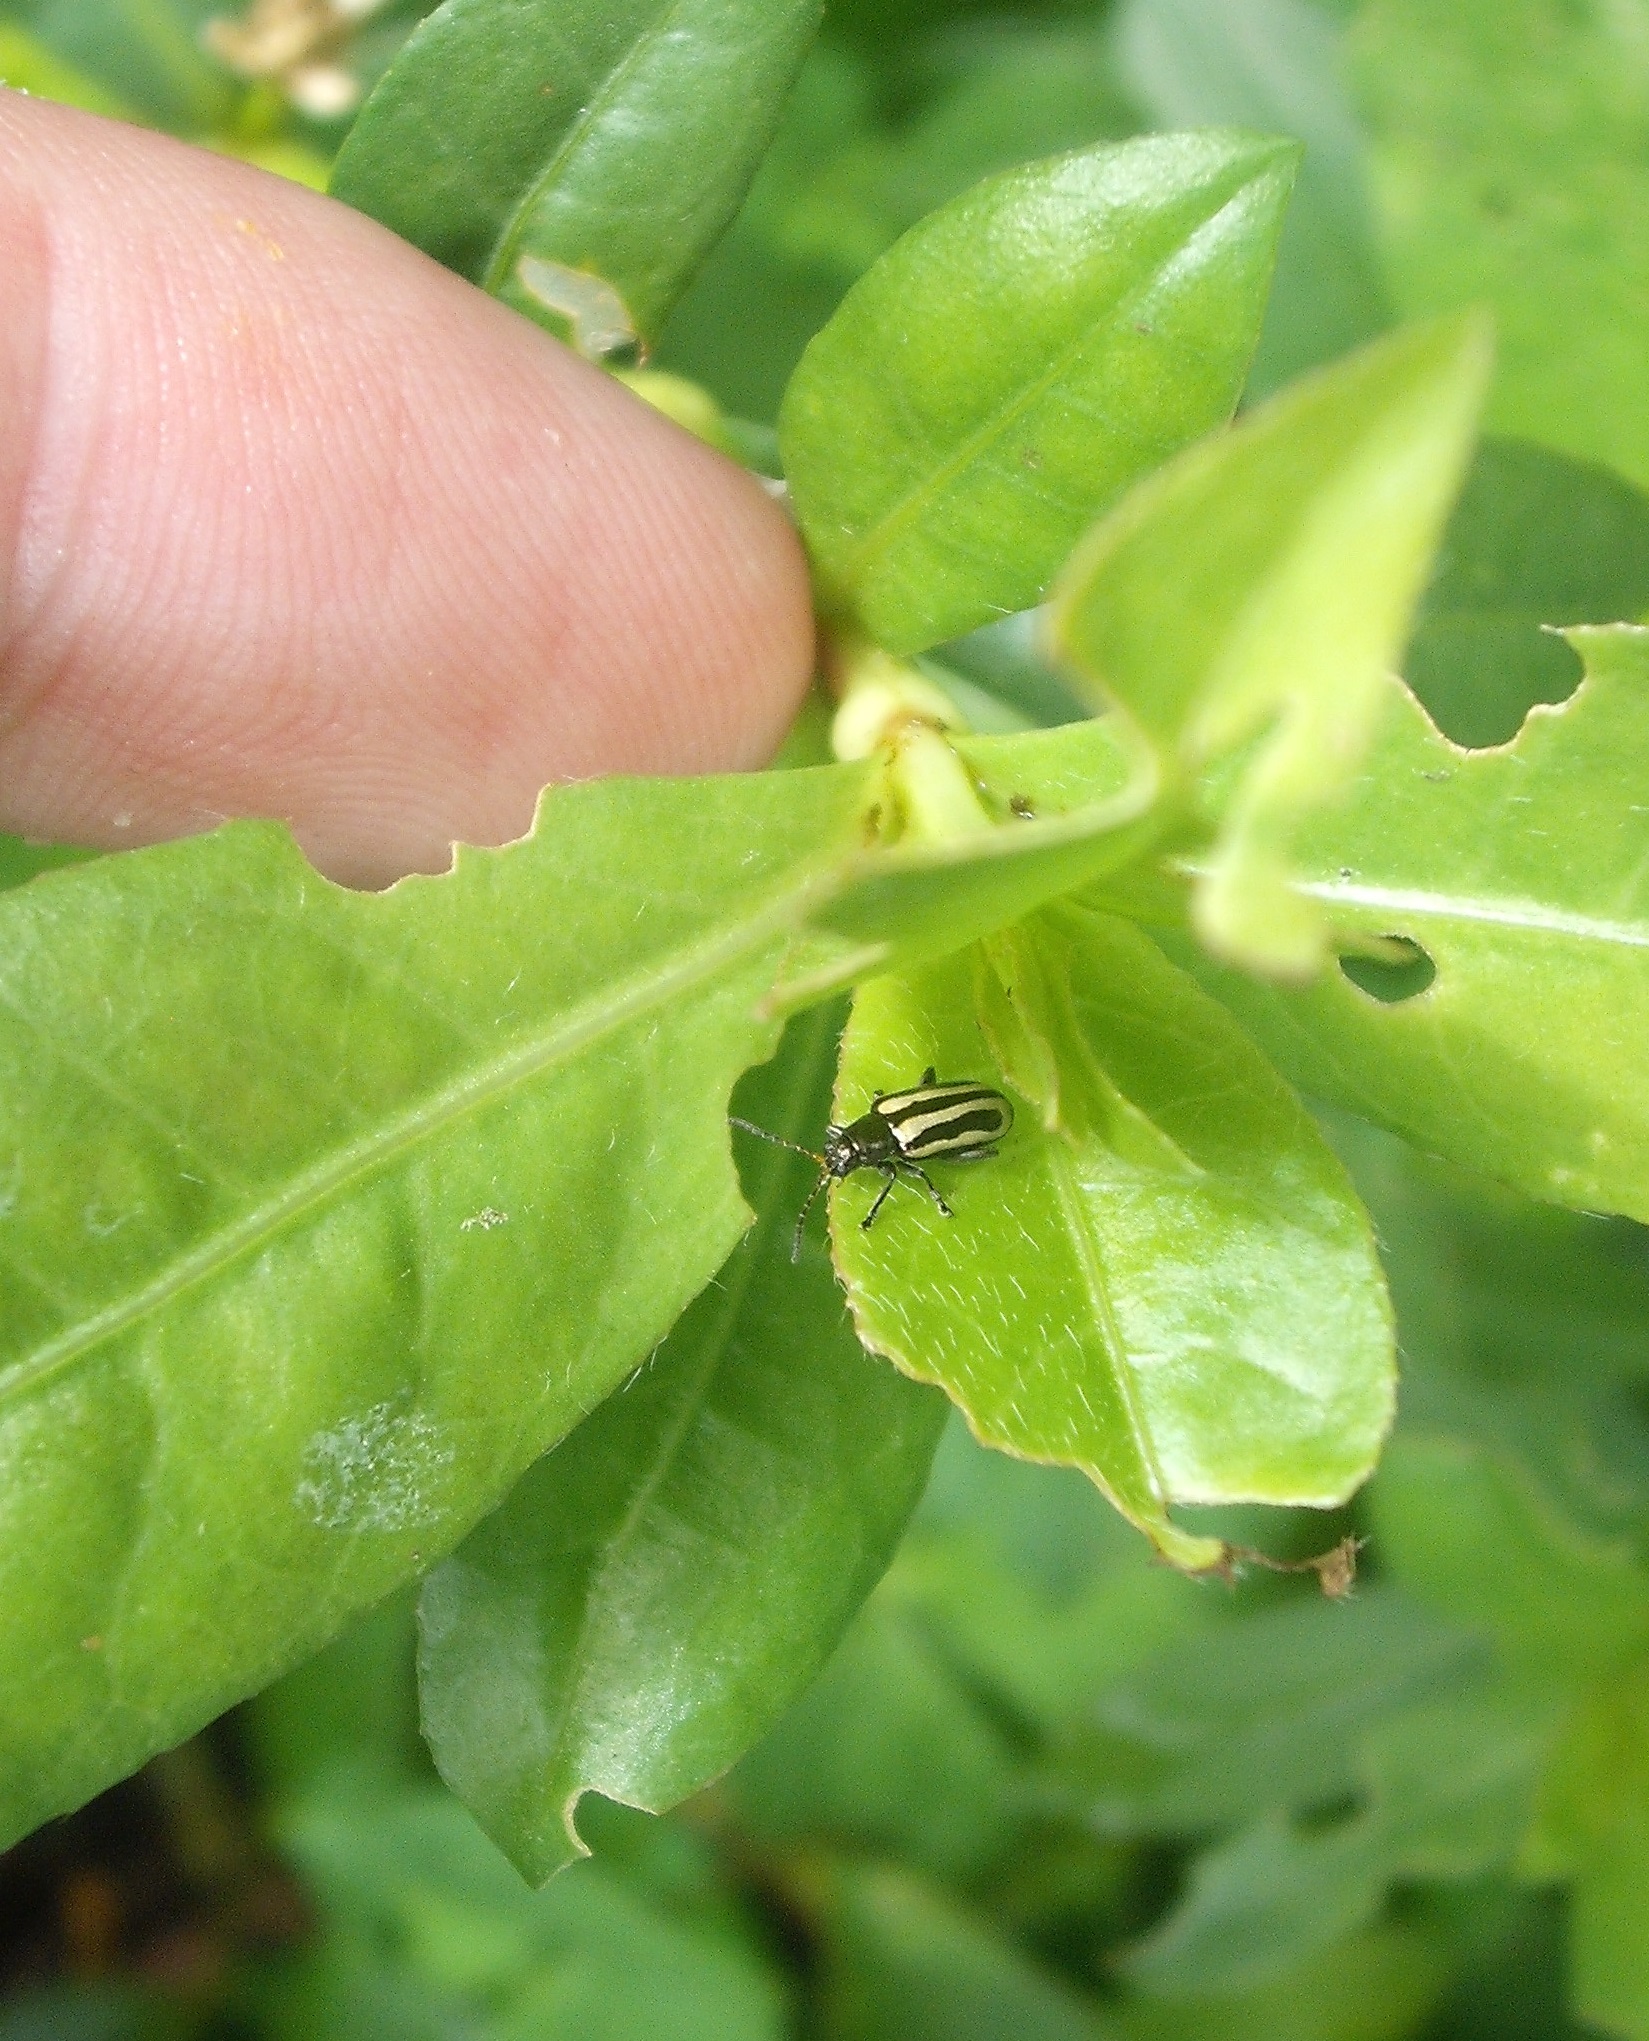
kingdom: Animalia
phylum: Arthropoda
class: Insecta
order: Coleoptera
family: Chrysomelidae
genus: Agasicles
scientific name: Agasicles hygrophila
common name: Alligatorweed flea beetle
